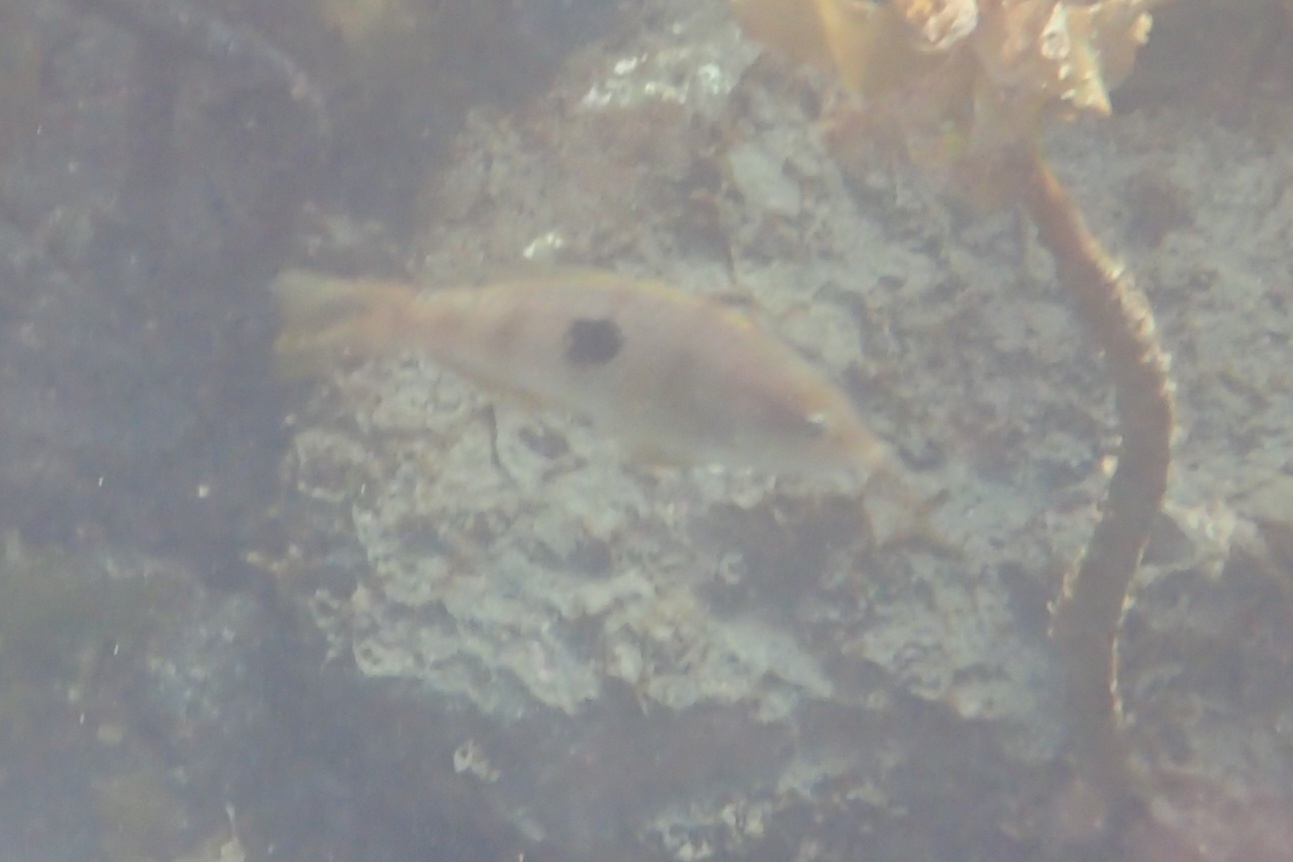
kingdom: Animalia
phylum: Chordata
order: Perciformes
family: Labridae
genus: Notolabrus
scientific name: Notolabrus celidotus
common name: Spotty
